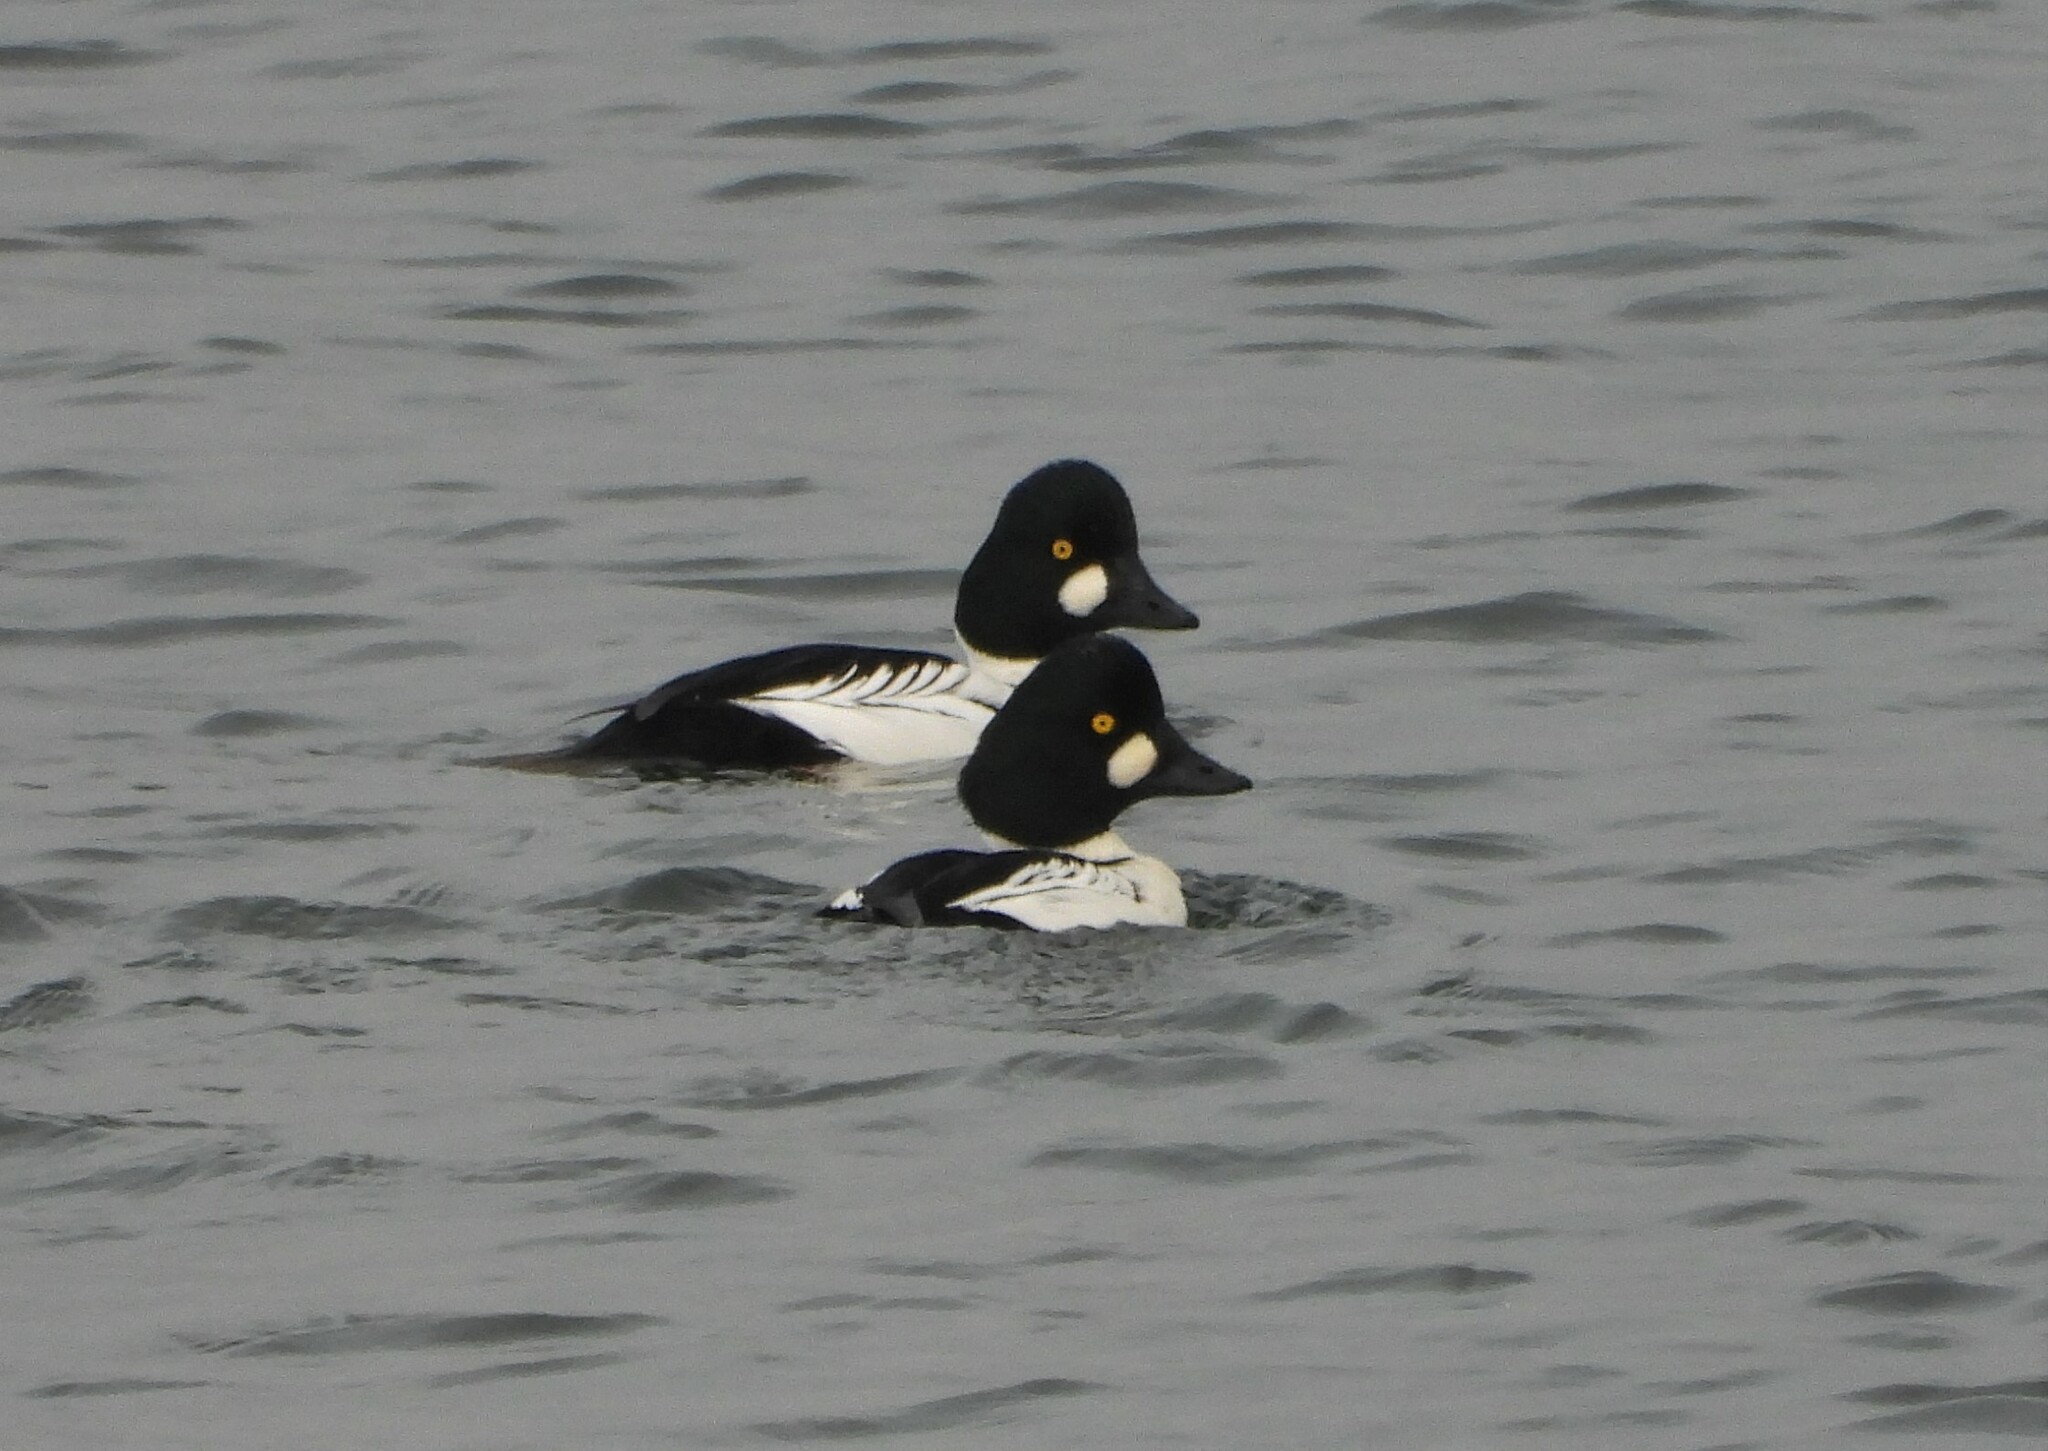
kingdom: Animalia
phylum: Chordata
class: Aves
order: Anseriformes
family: Anatidae
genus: Bucephala
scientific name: Bucephala clangula
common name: Common goldeneye
